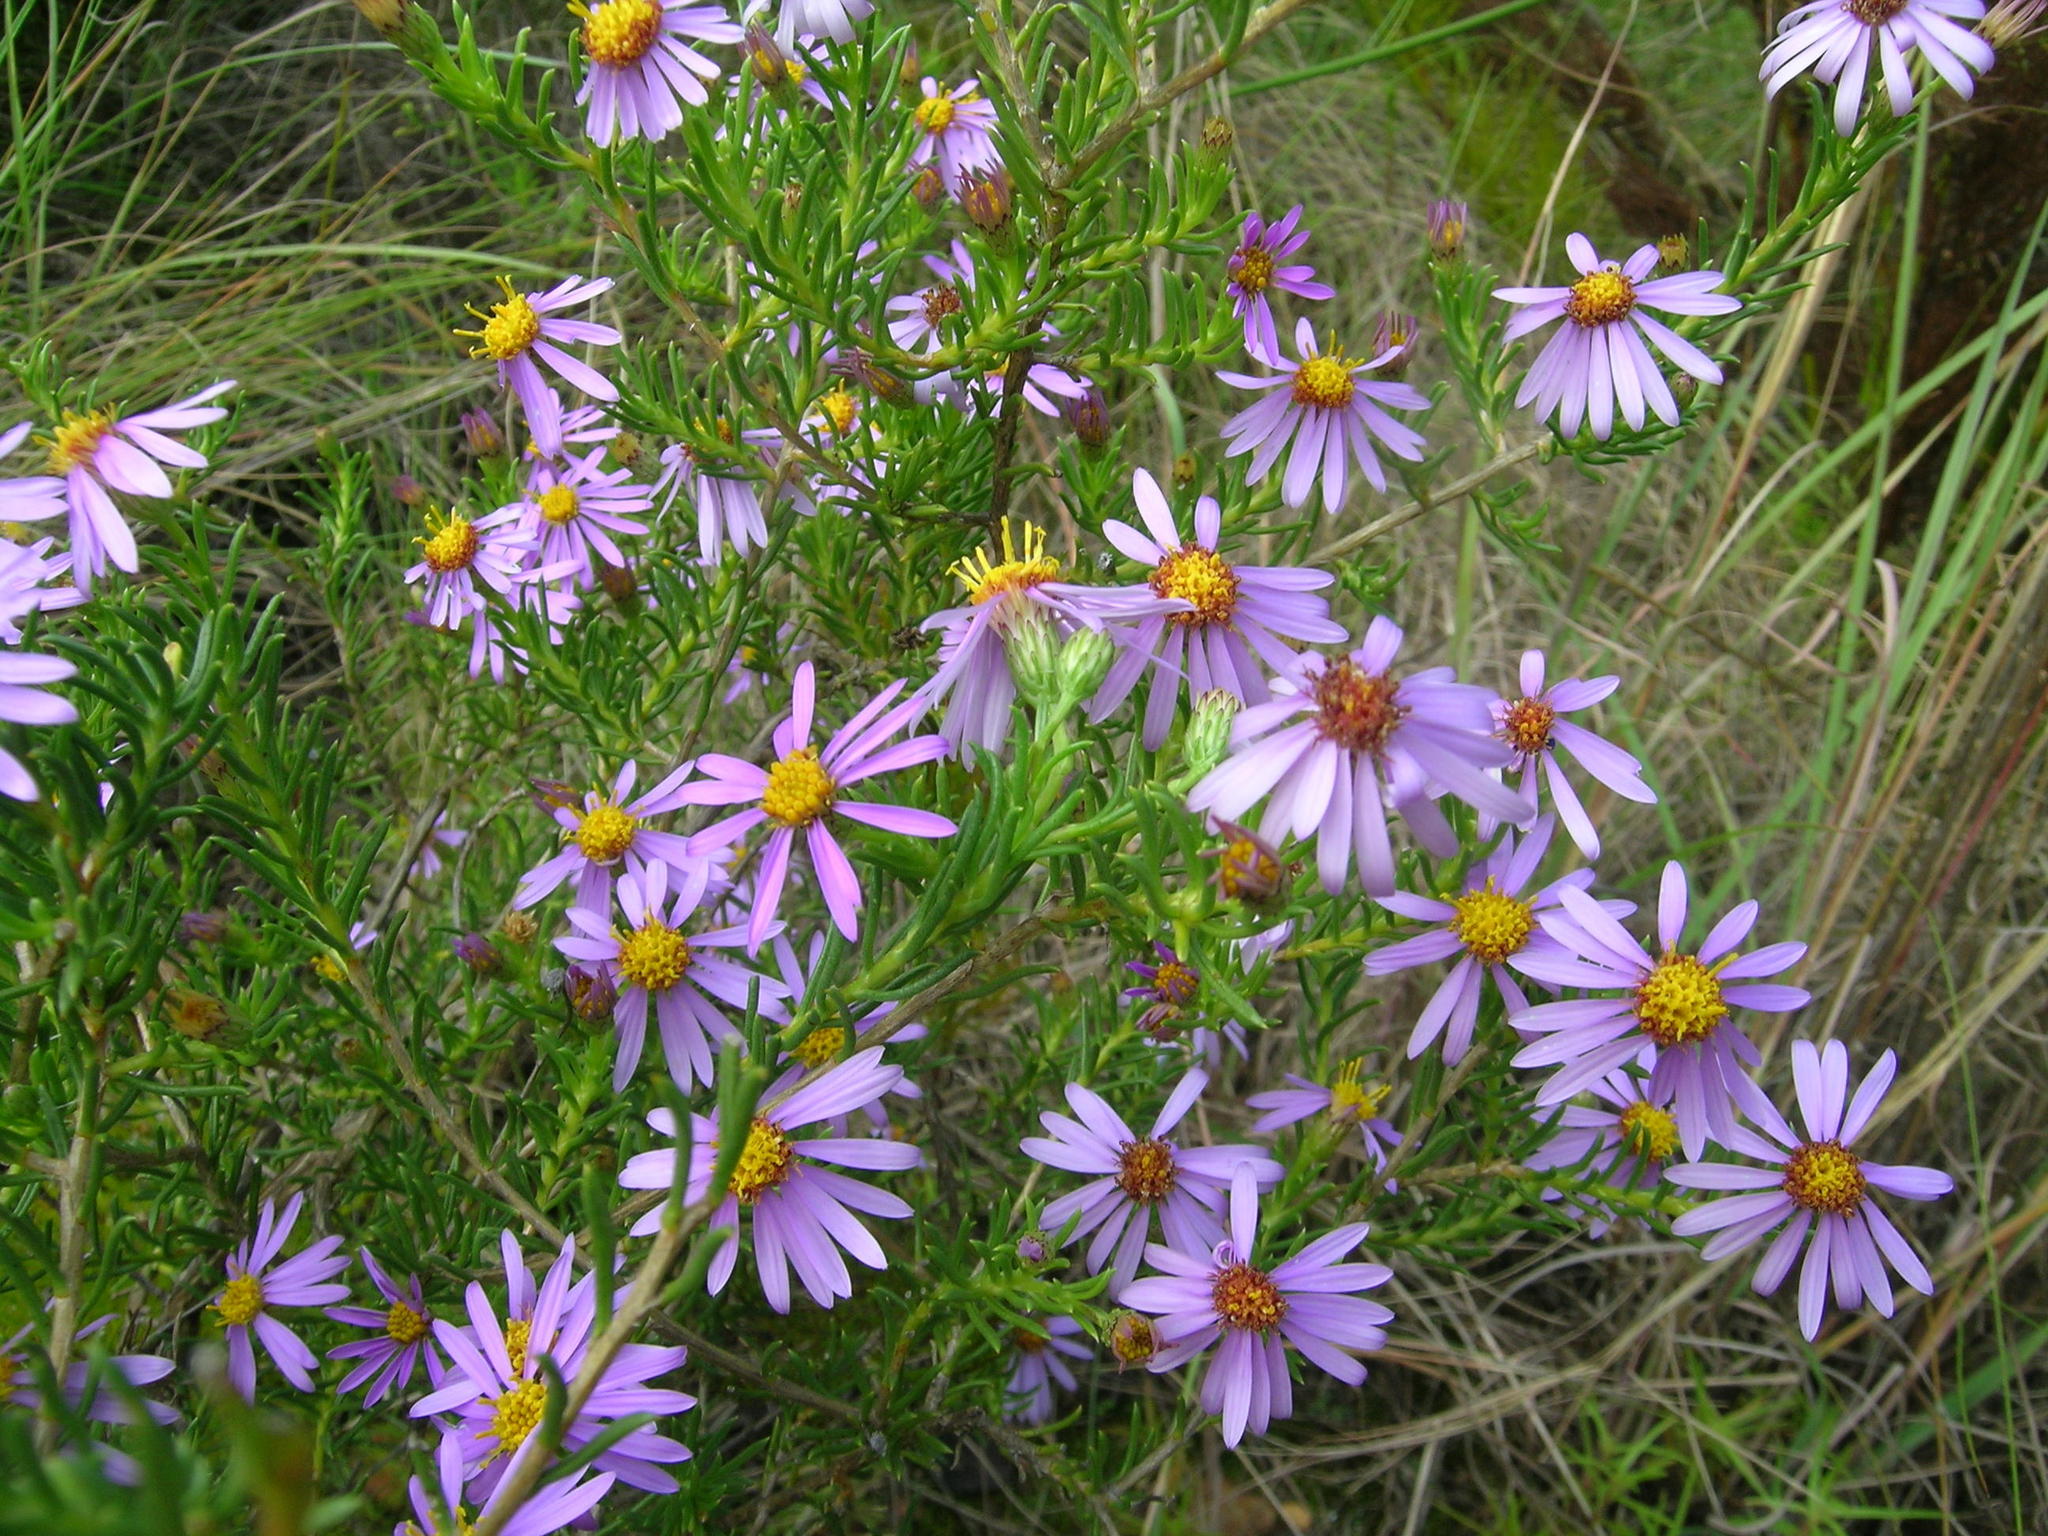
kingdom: Plantae
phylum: Tracheophyta
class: Magnoliopsida
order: Asterales
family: Asteraceae
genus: Felicia
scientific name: Felicia filifolia
